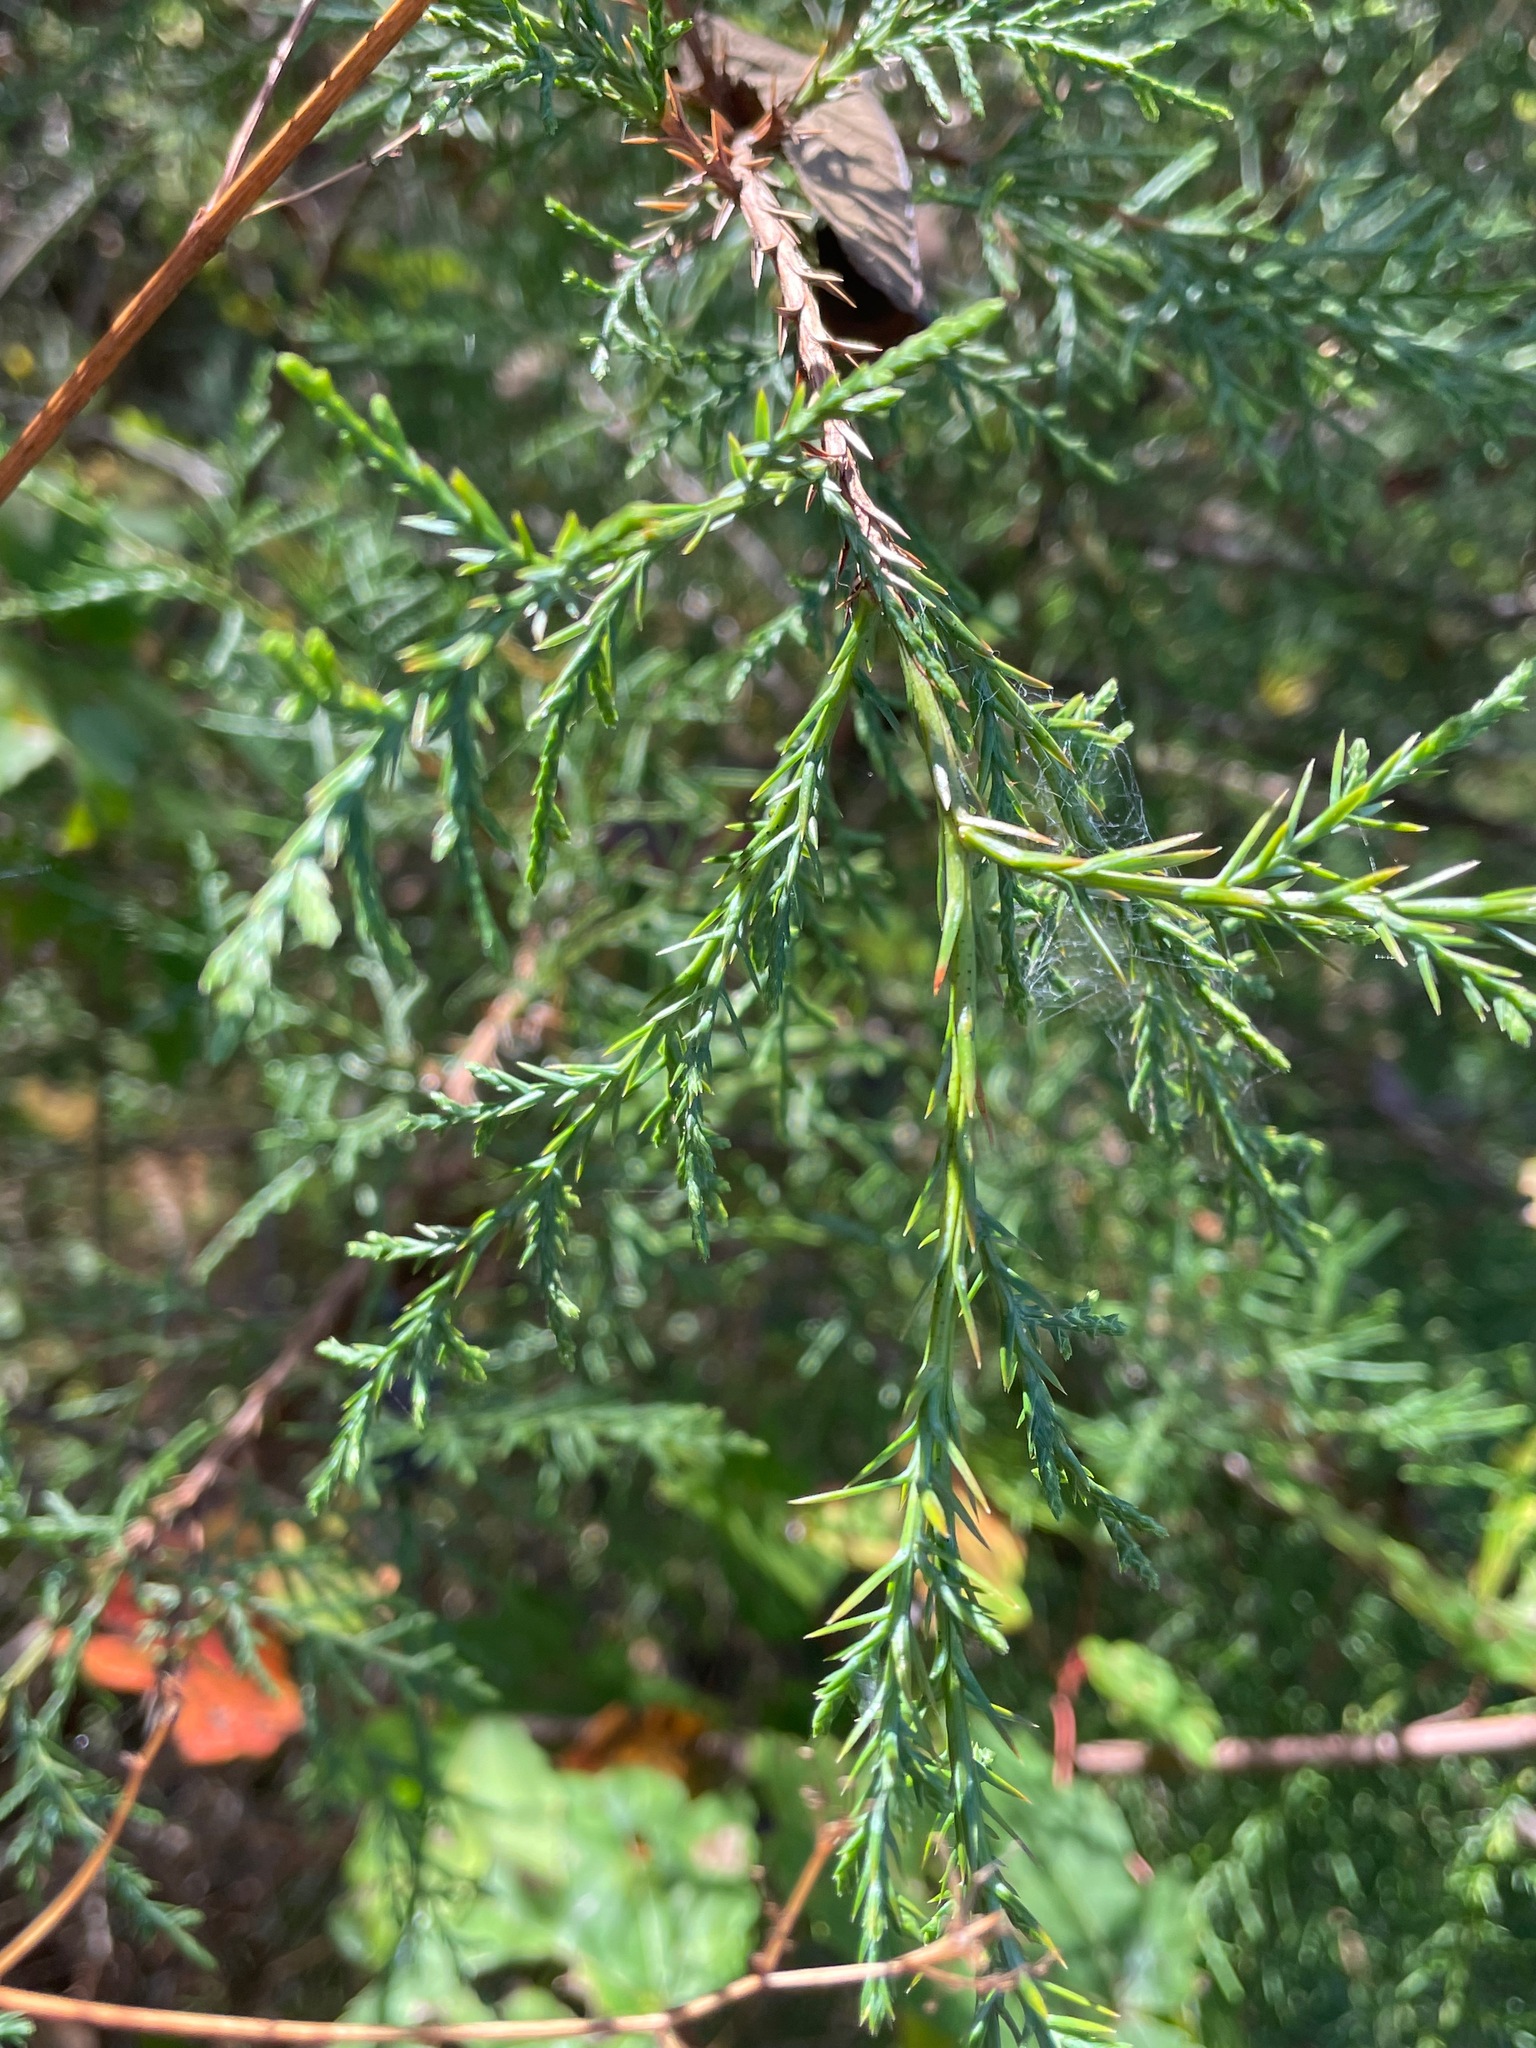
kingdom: Plantae
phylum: Tracheophyta
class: Pinopsida
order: Pinales
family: Cupressaceae
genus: Juniperus
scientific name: Juniperus virginiana
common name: Red juniper
